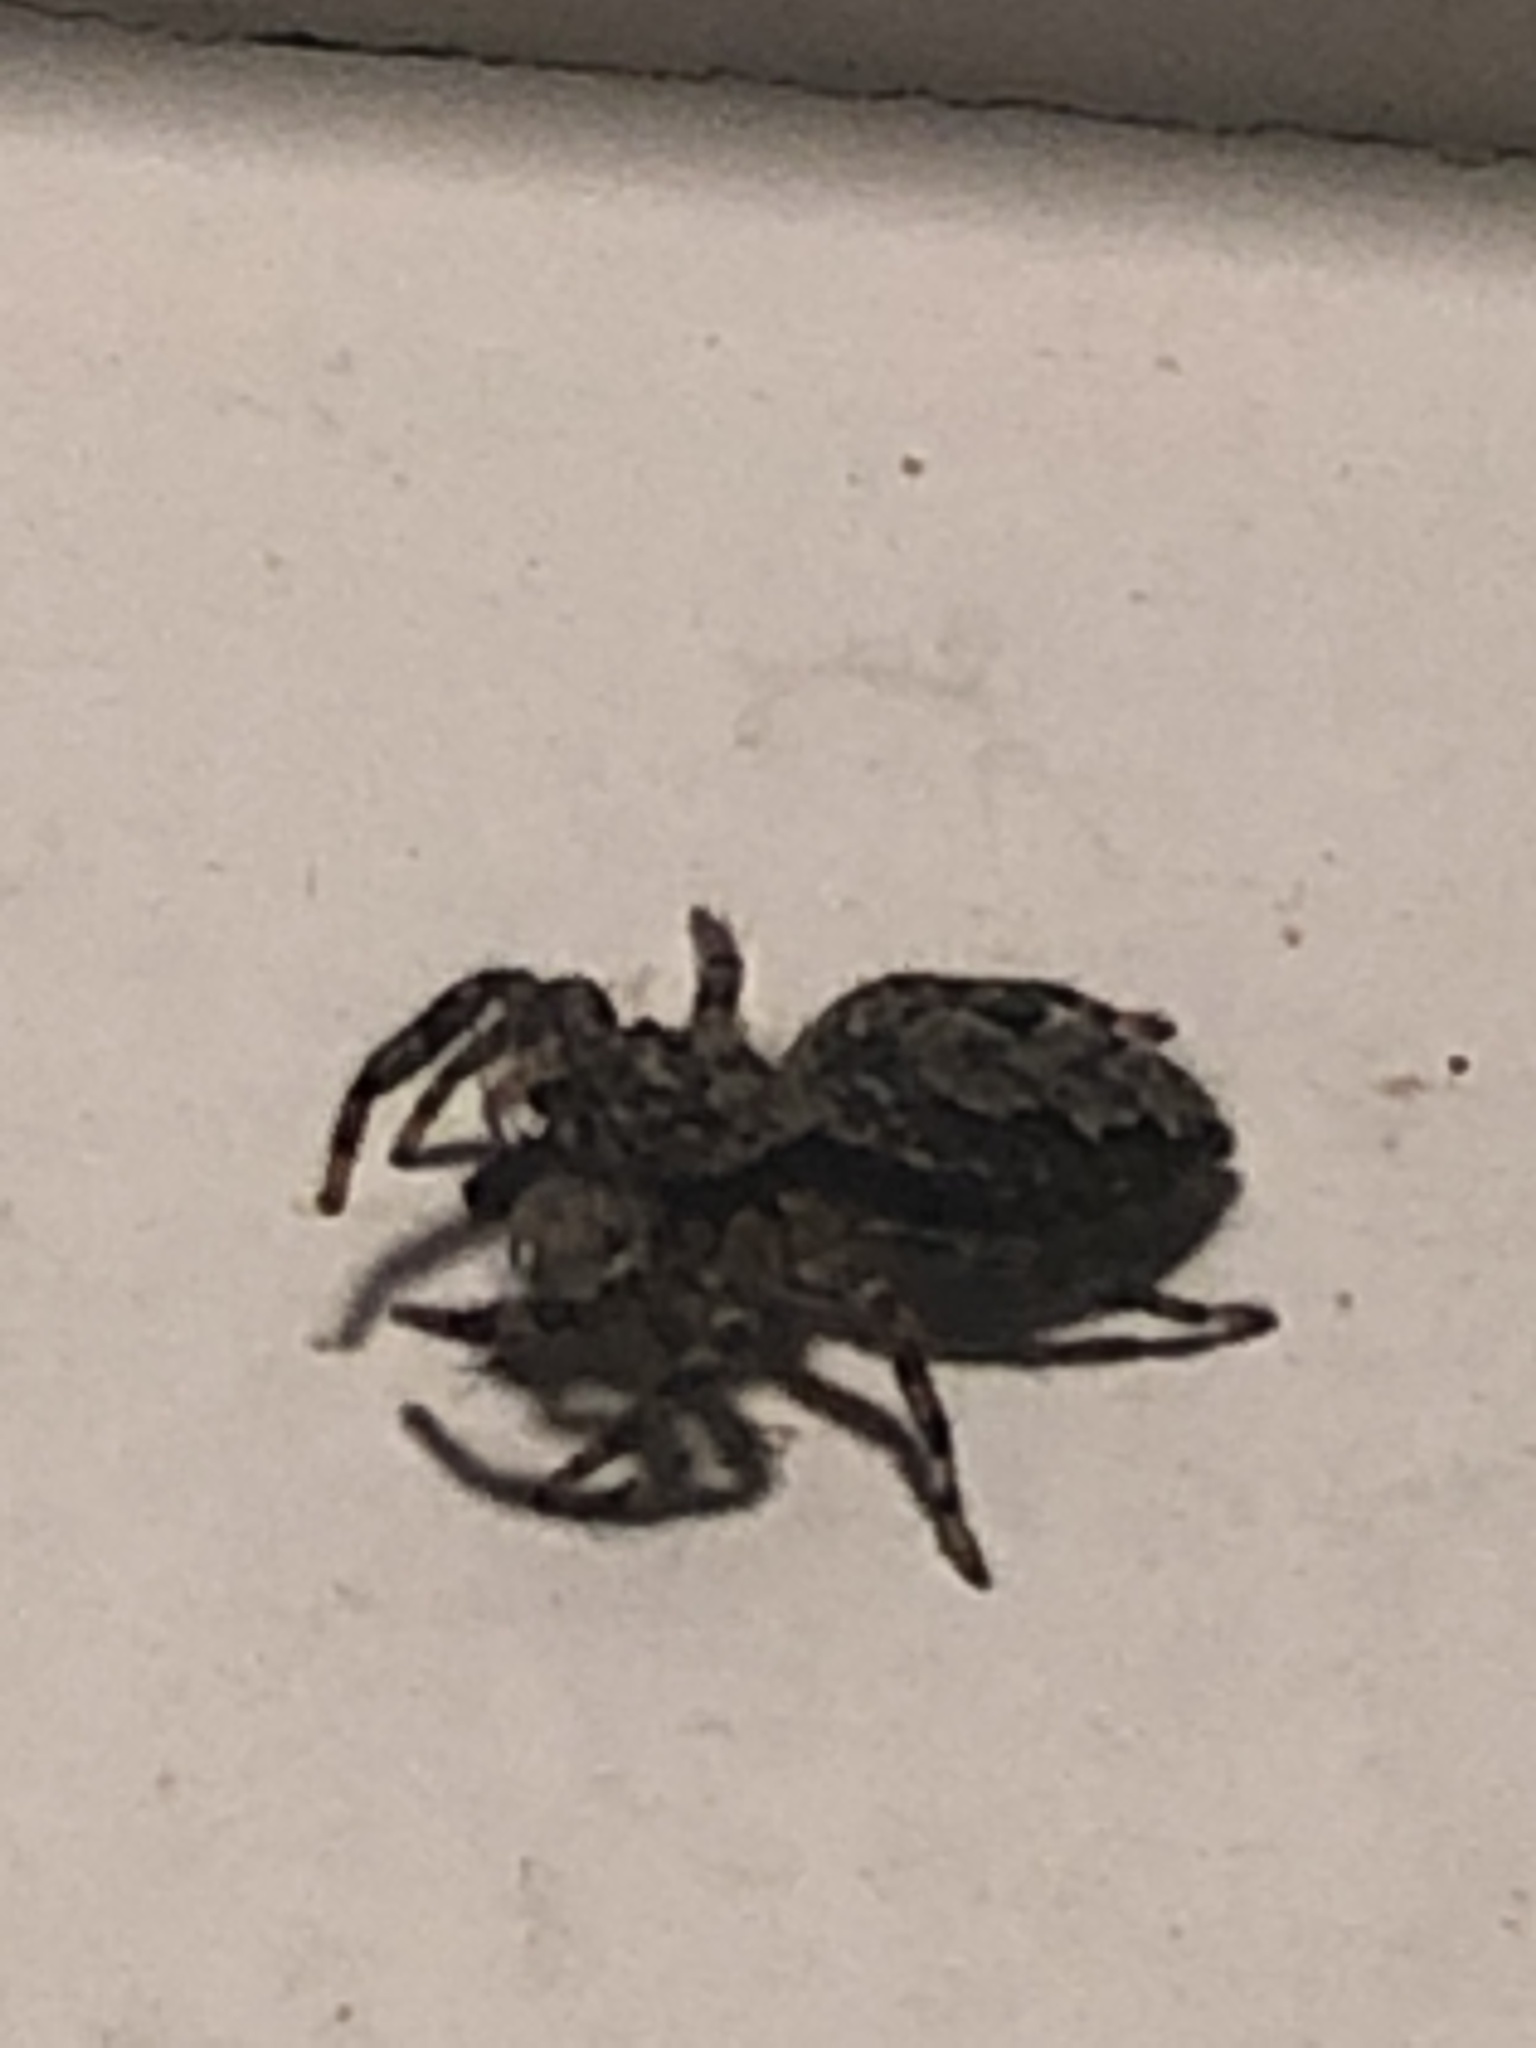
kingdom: Animalia
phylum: Arthropoda
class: Arachnida
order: Araneae
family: Salticidae
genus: Platycryptus
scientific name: Platycryptus undatus
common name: Tan jumping spider
